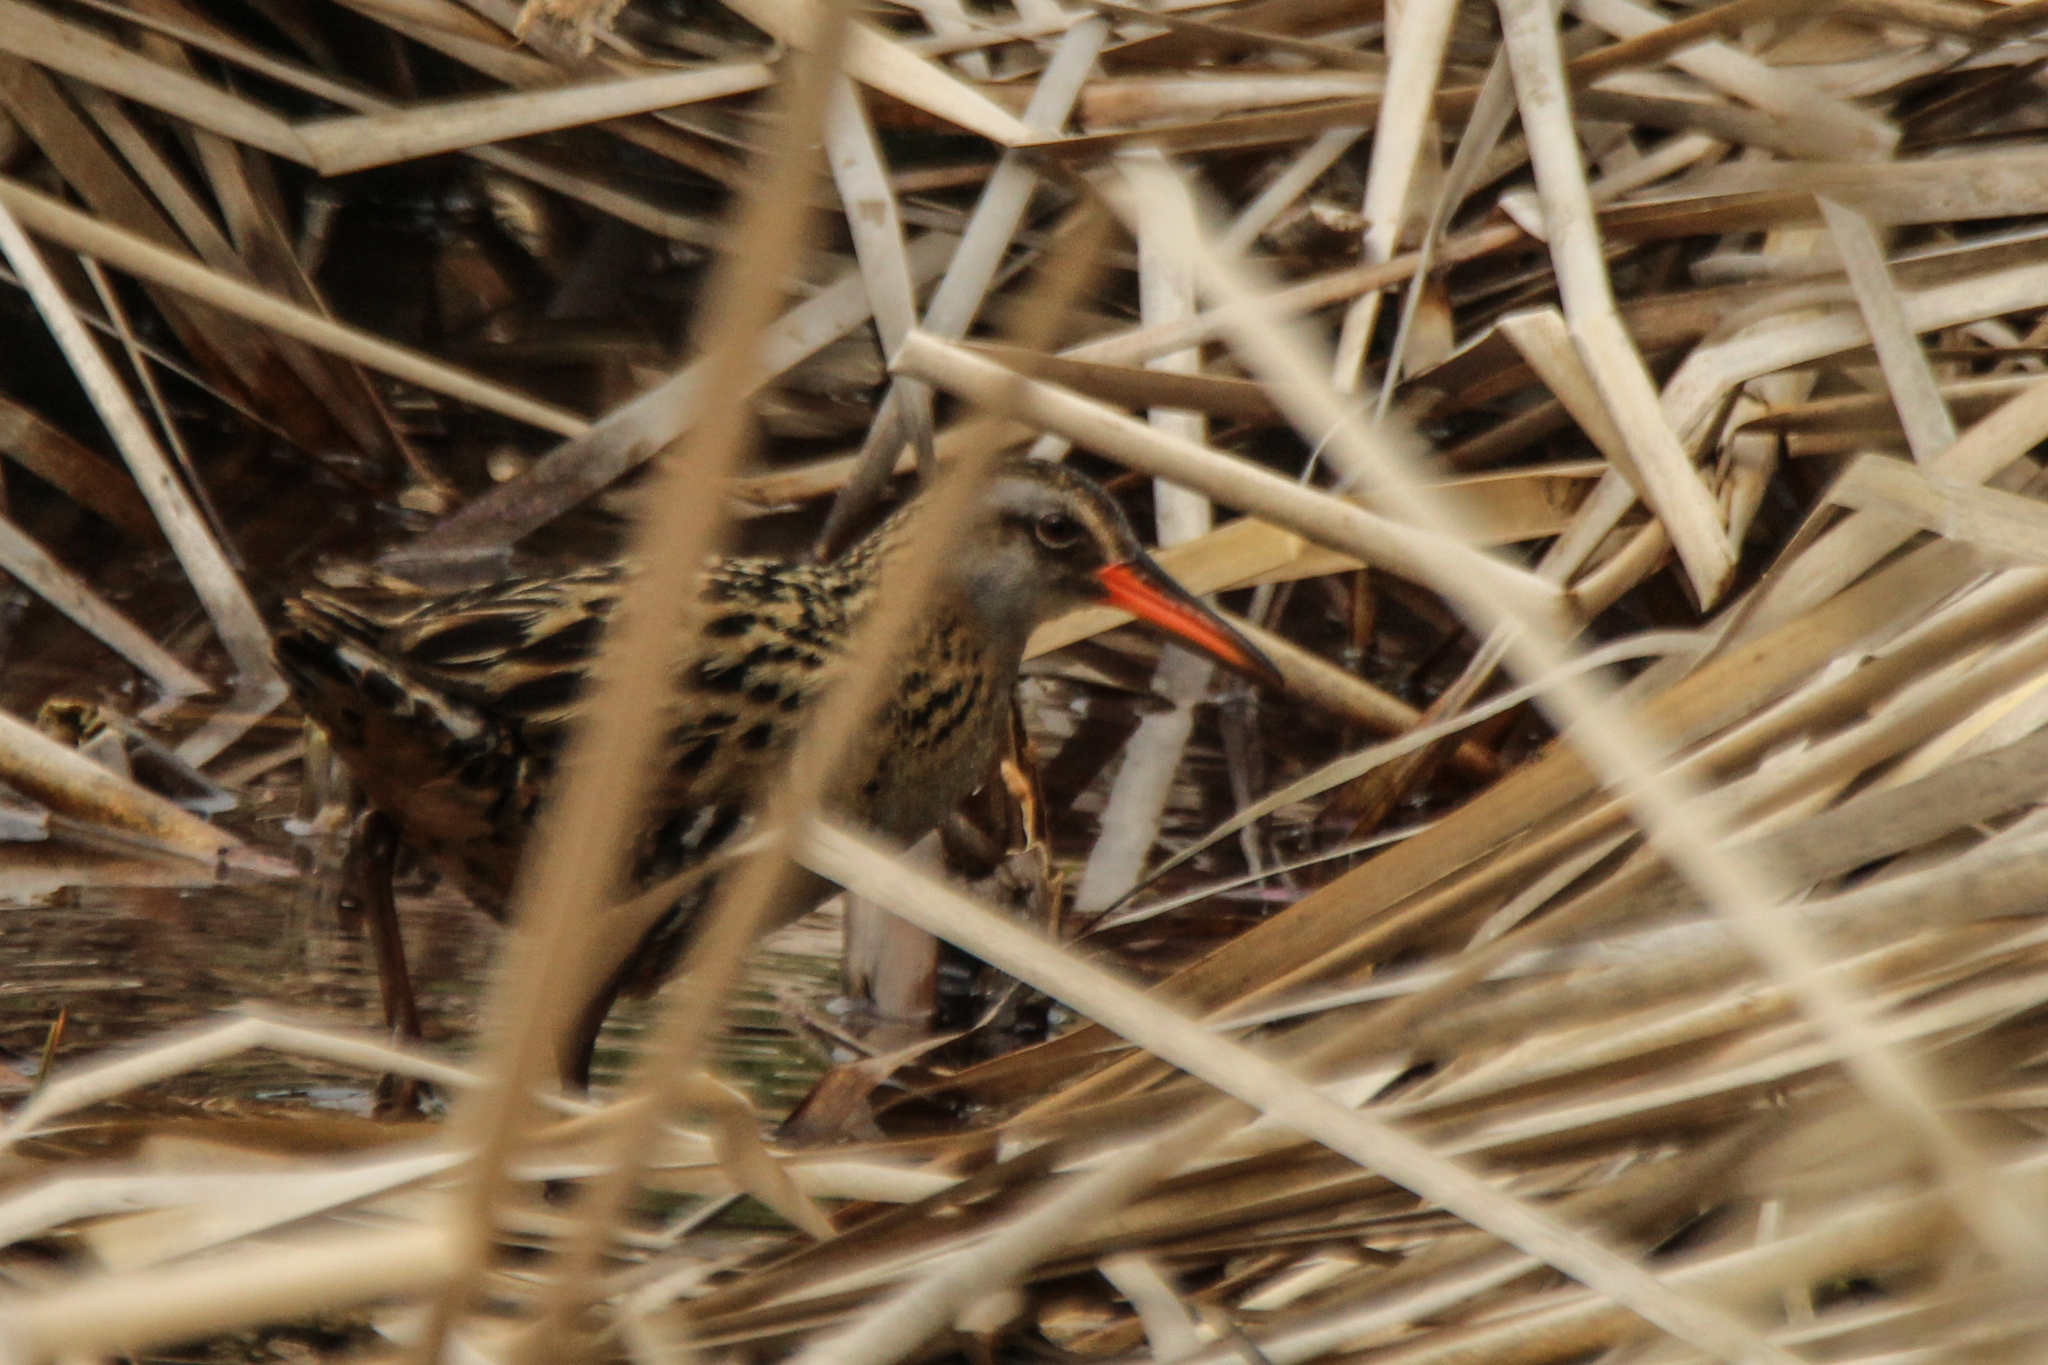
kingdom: Animalia
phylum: Chordata
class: Aves
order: Gruiformes
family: Rallidae
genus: Rallus
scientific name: Rallus indicus
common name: Brown-cheeked rail
